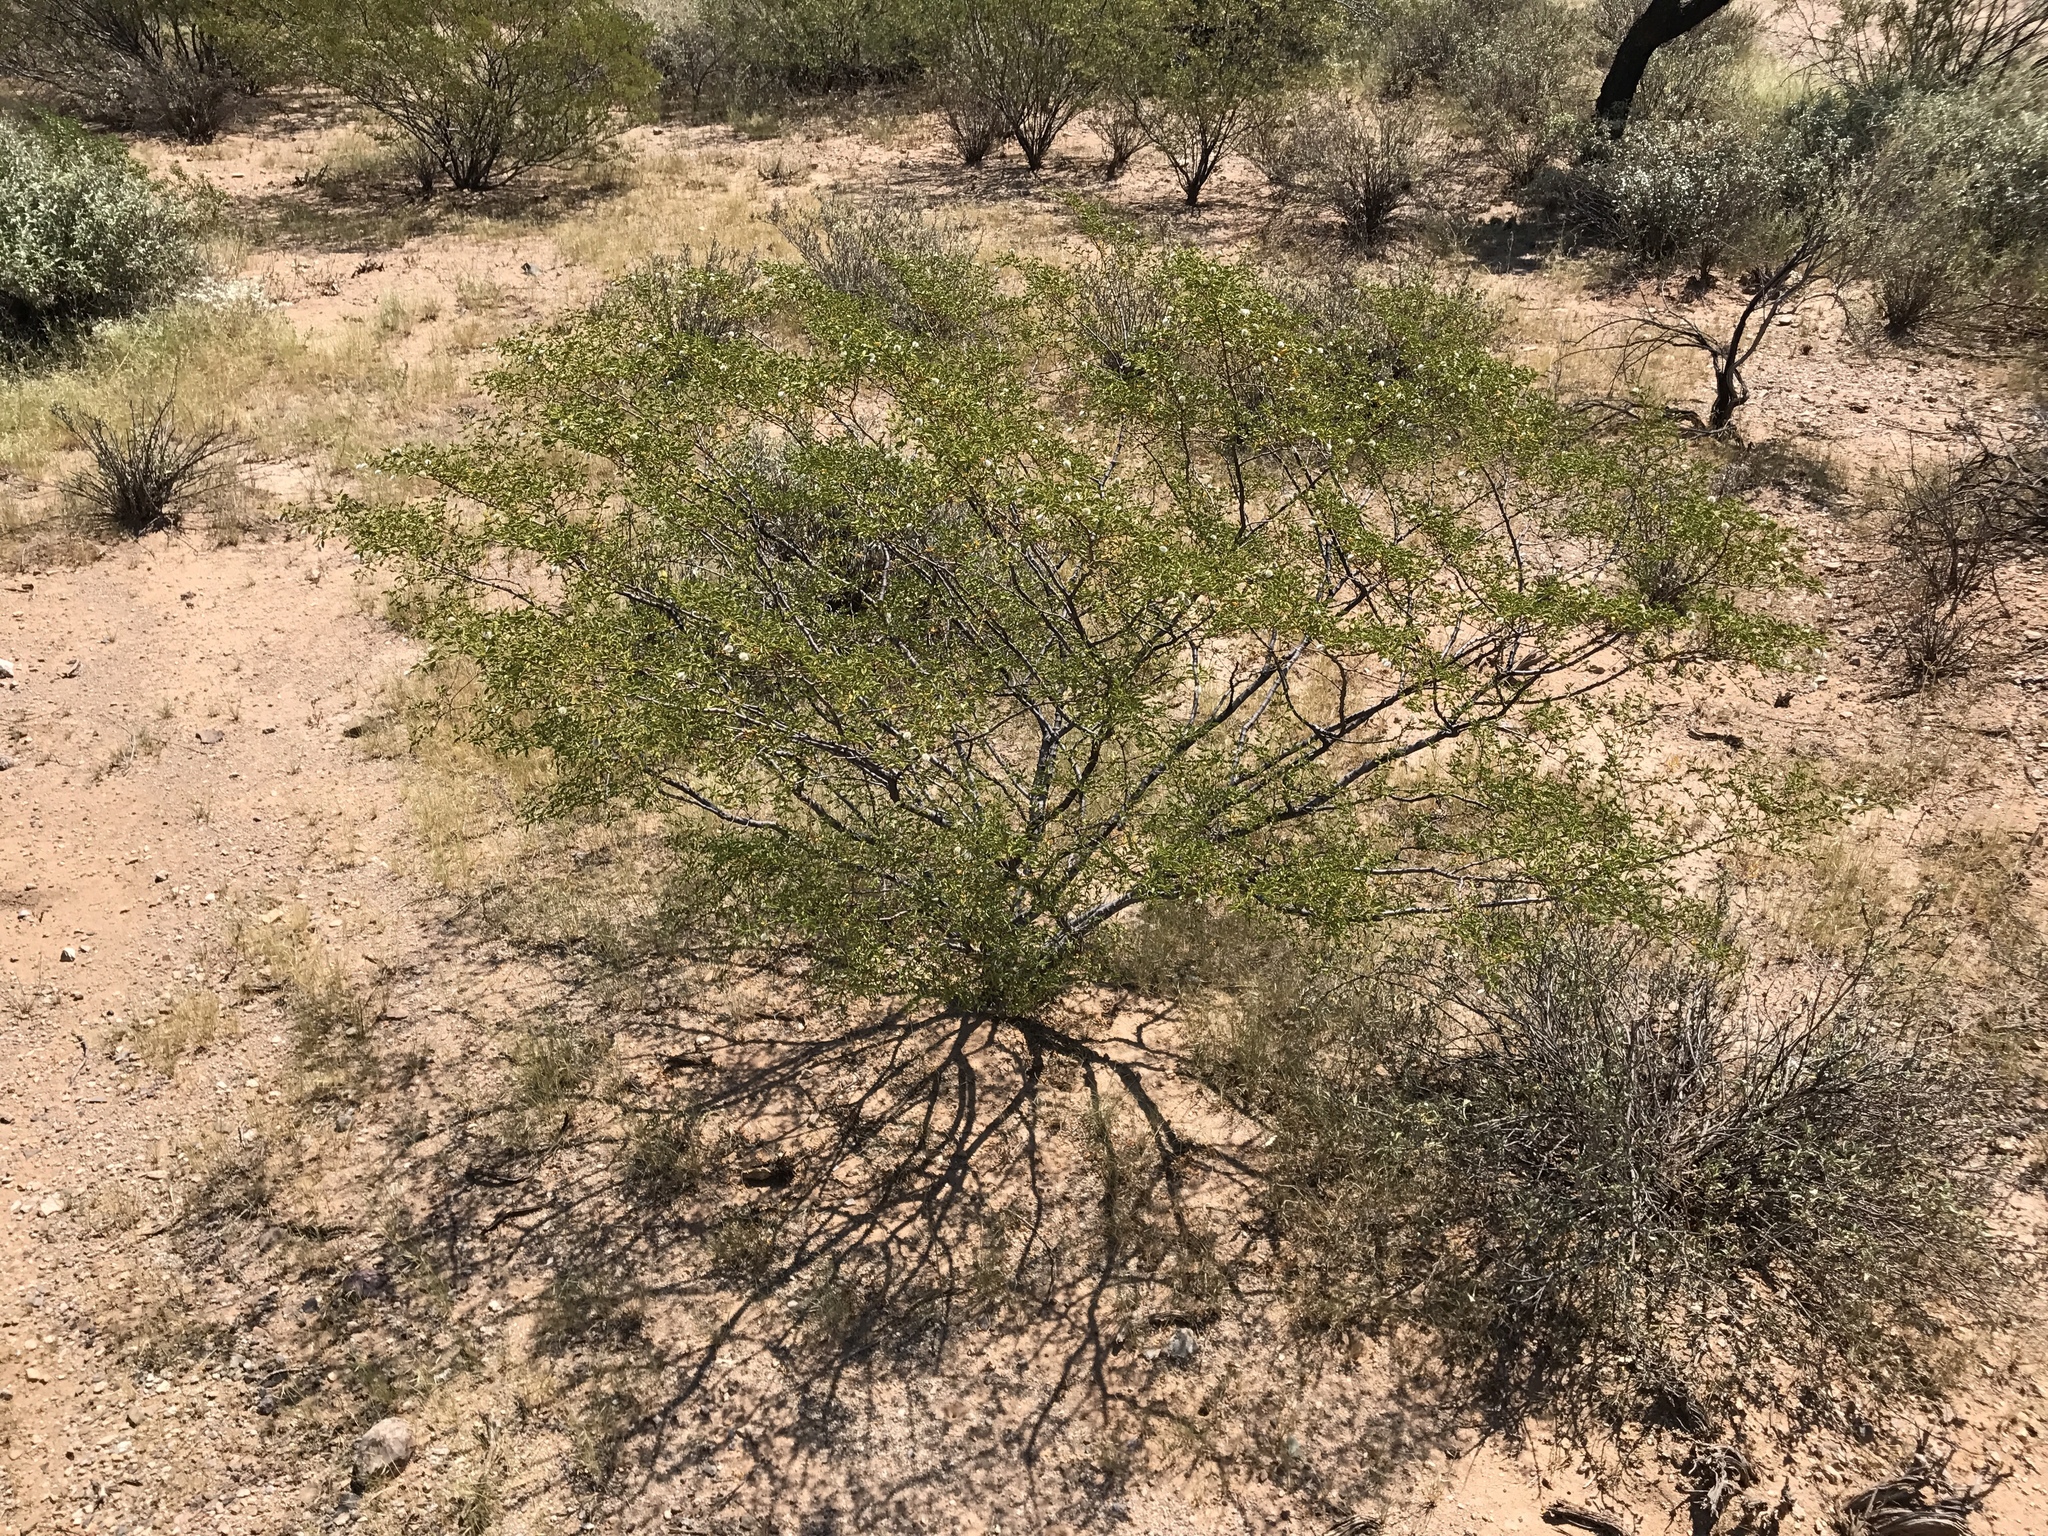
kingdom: Plantae
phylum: Tracheophyta
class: Magnoliopsida
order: Zygophyllales
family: Zygophyllaceae
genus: Larrea
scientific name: Larrea tridentata
